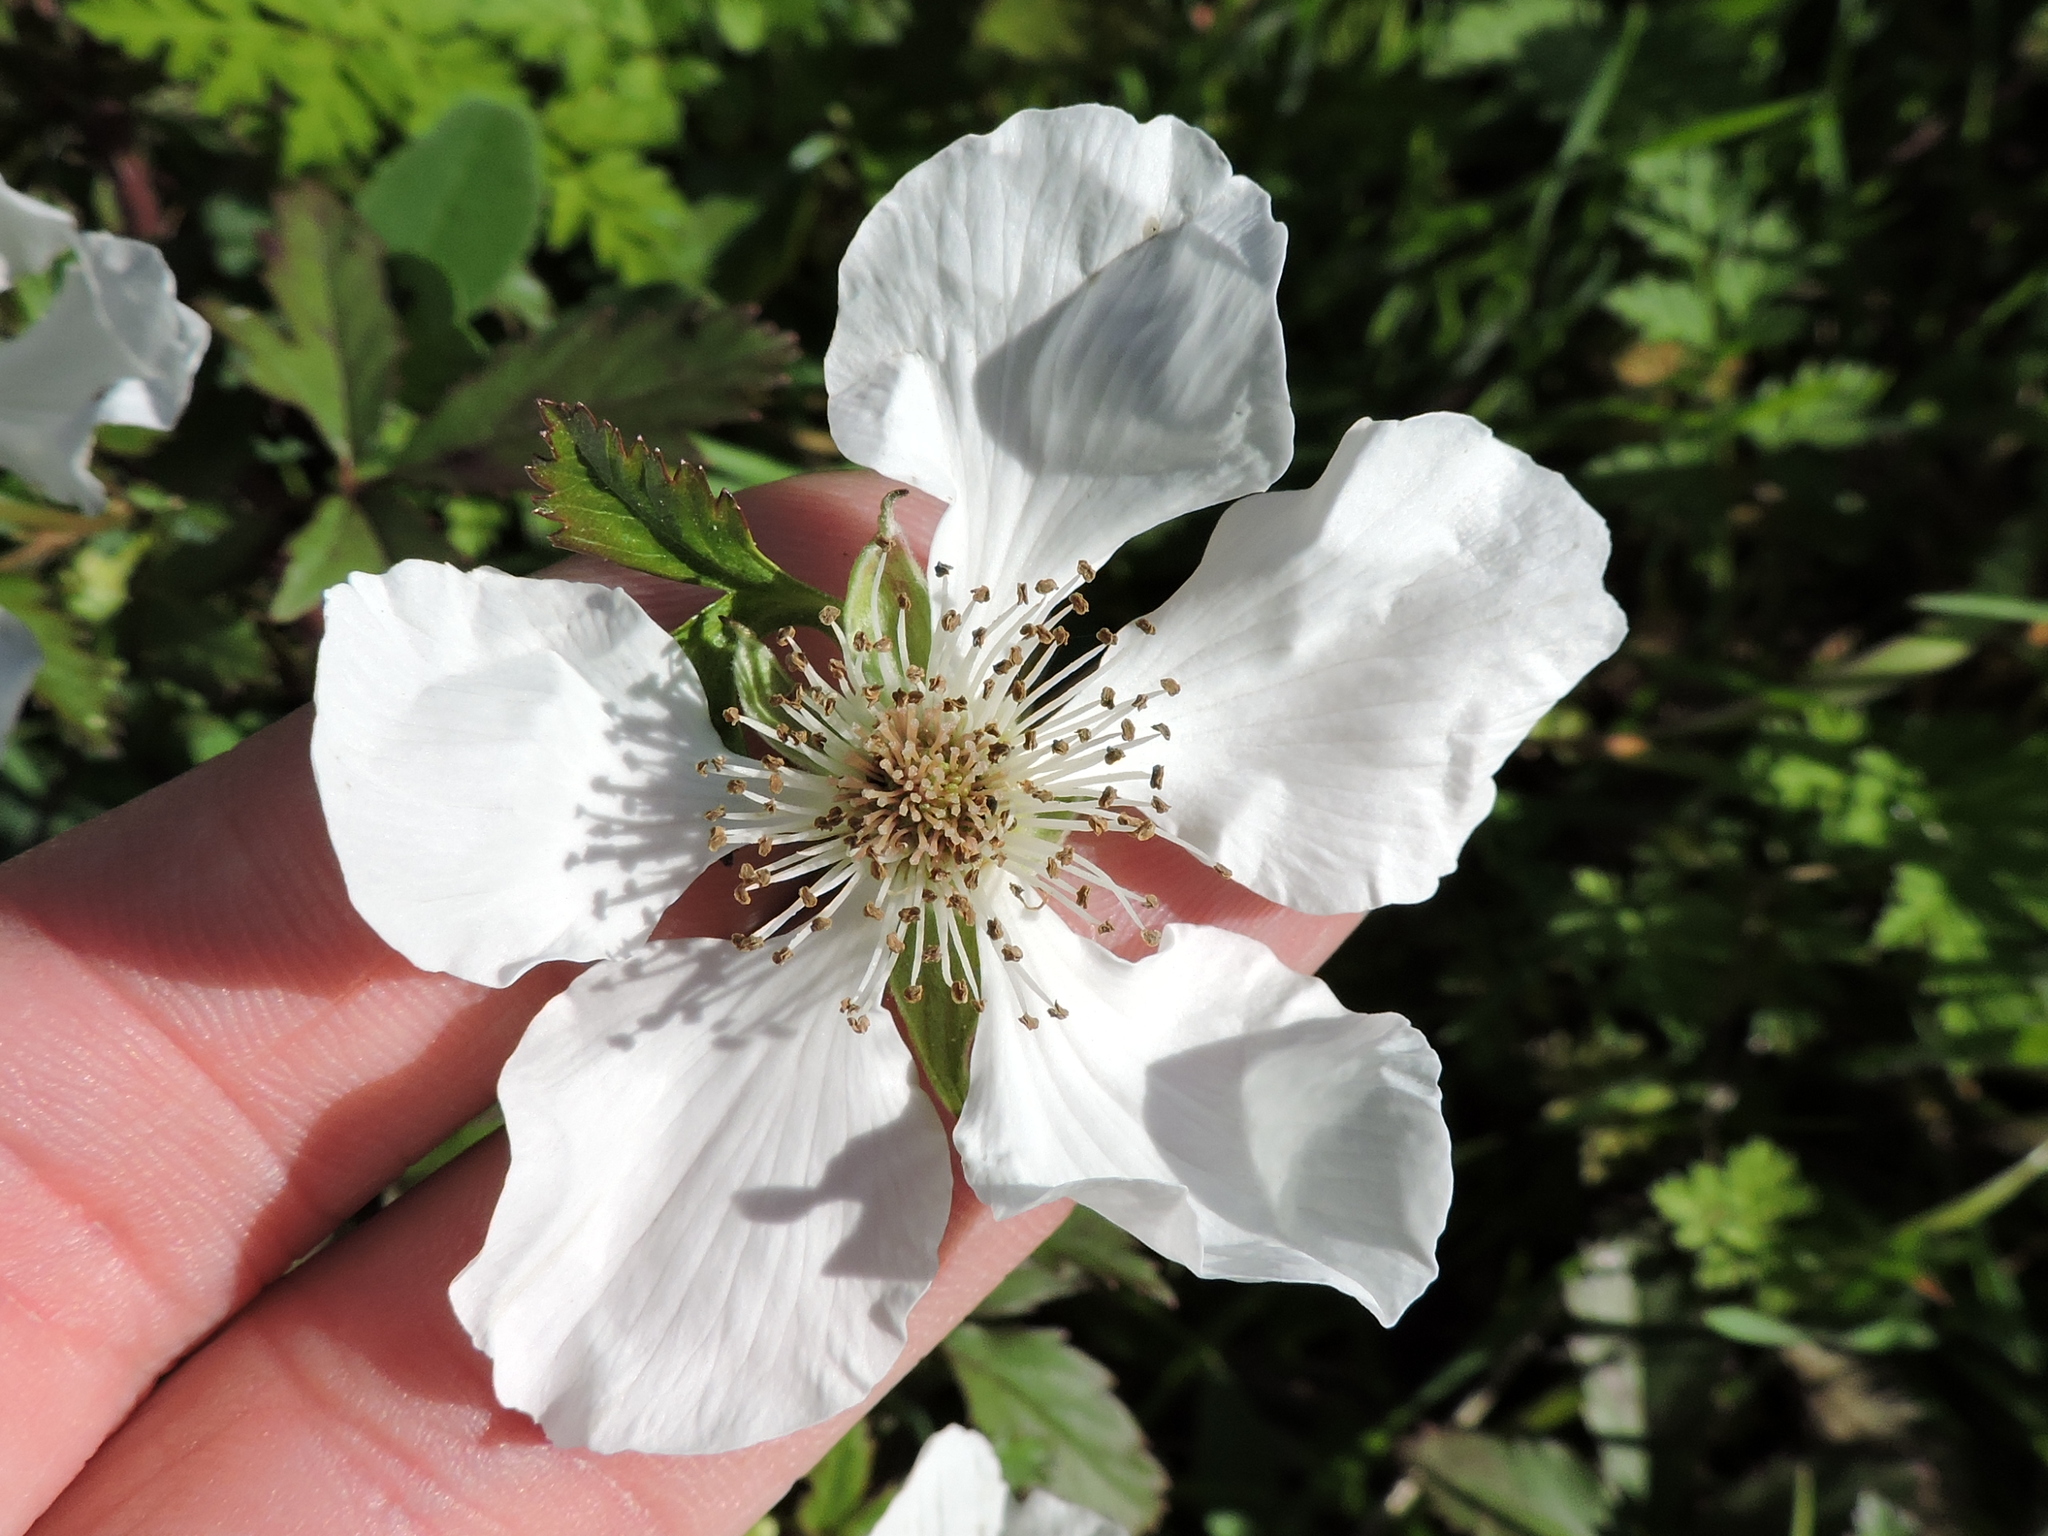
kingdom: Plantae
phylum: Tracheophyta
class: Magnoliopsida
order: Rosales
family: Rosaceae
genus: Rubus
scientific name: Rubus trivialis
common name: Southern dewberry
